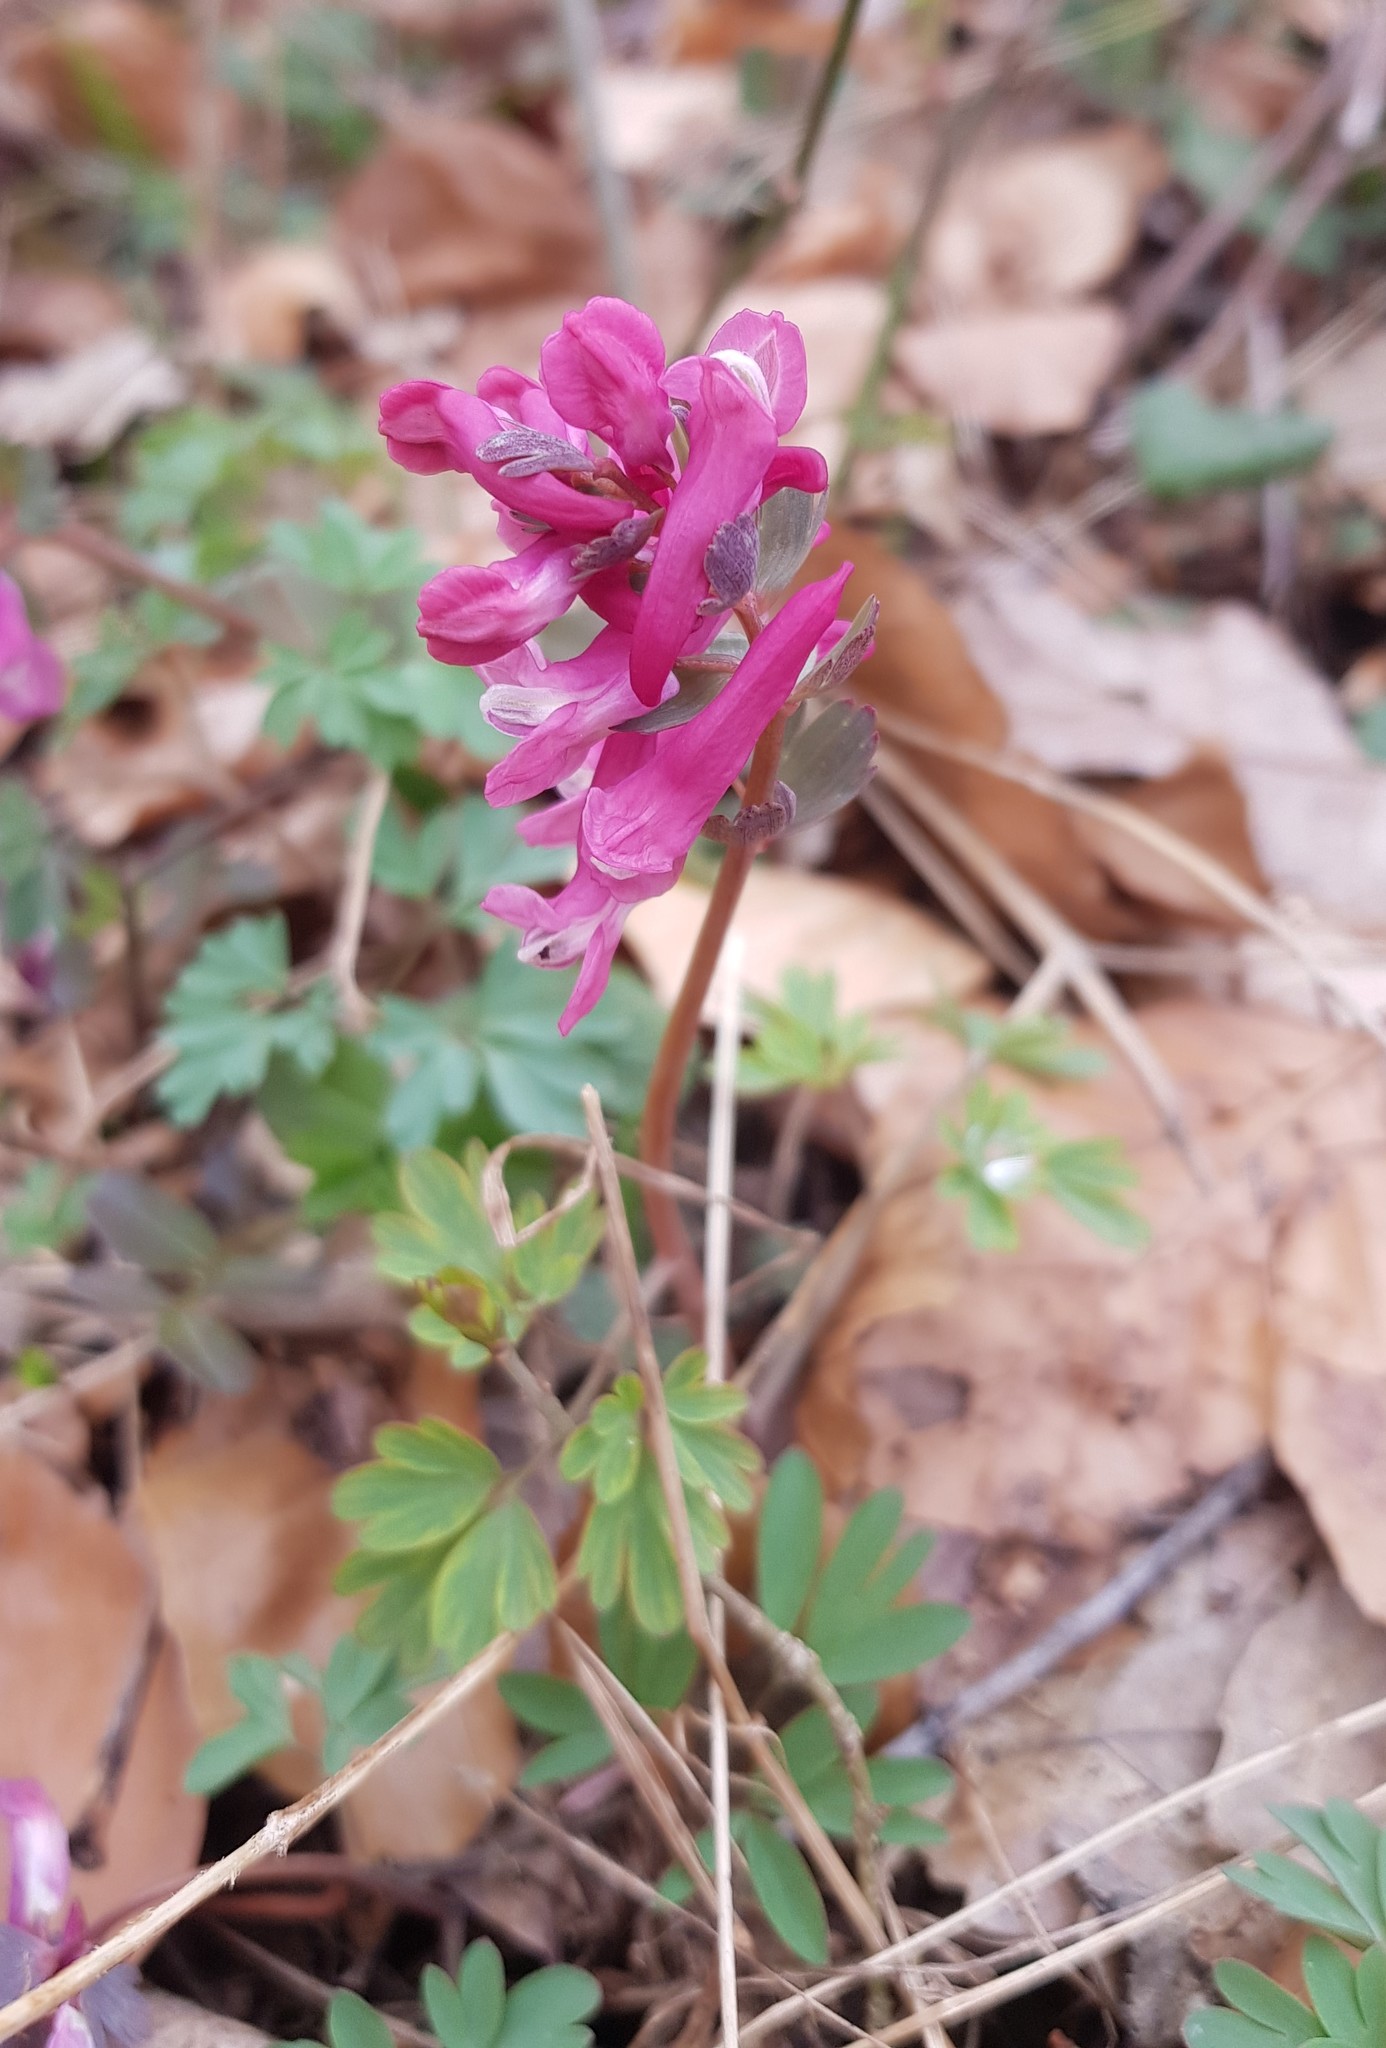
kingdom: Plantae
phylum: Tracheophyta
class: Magnoliopsida
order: Ranunculales
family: Papaveraceae
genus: Corydalis
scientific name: Corydalis solida
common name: Bird-in-a-bush
